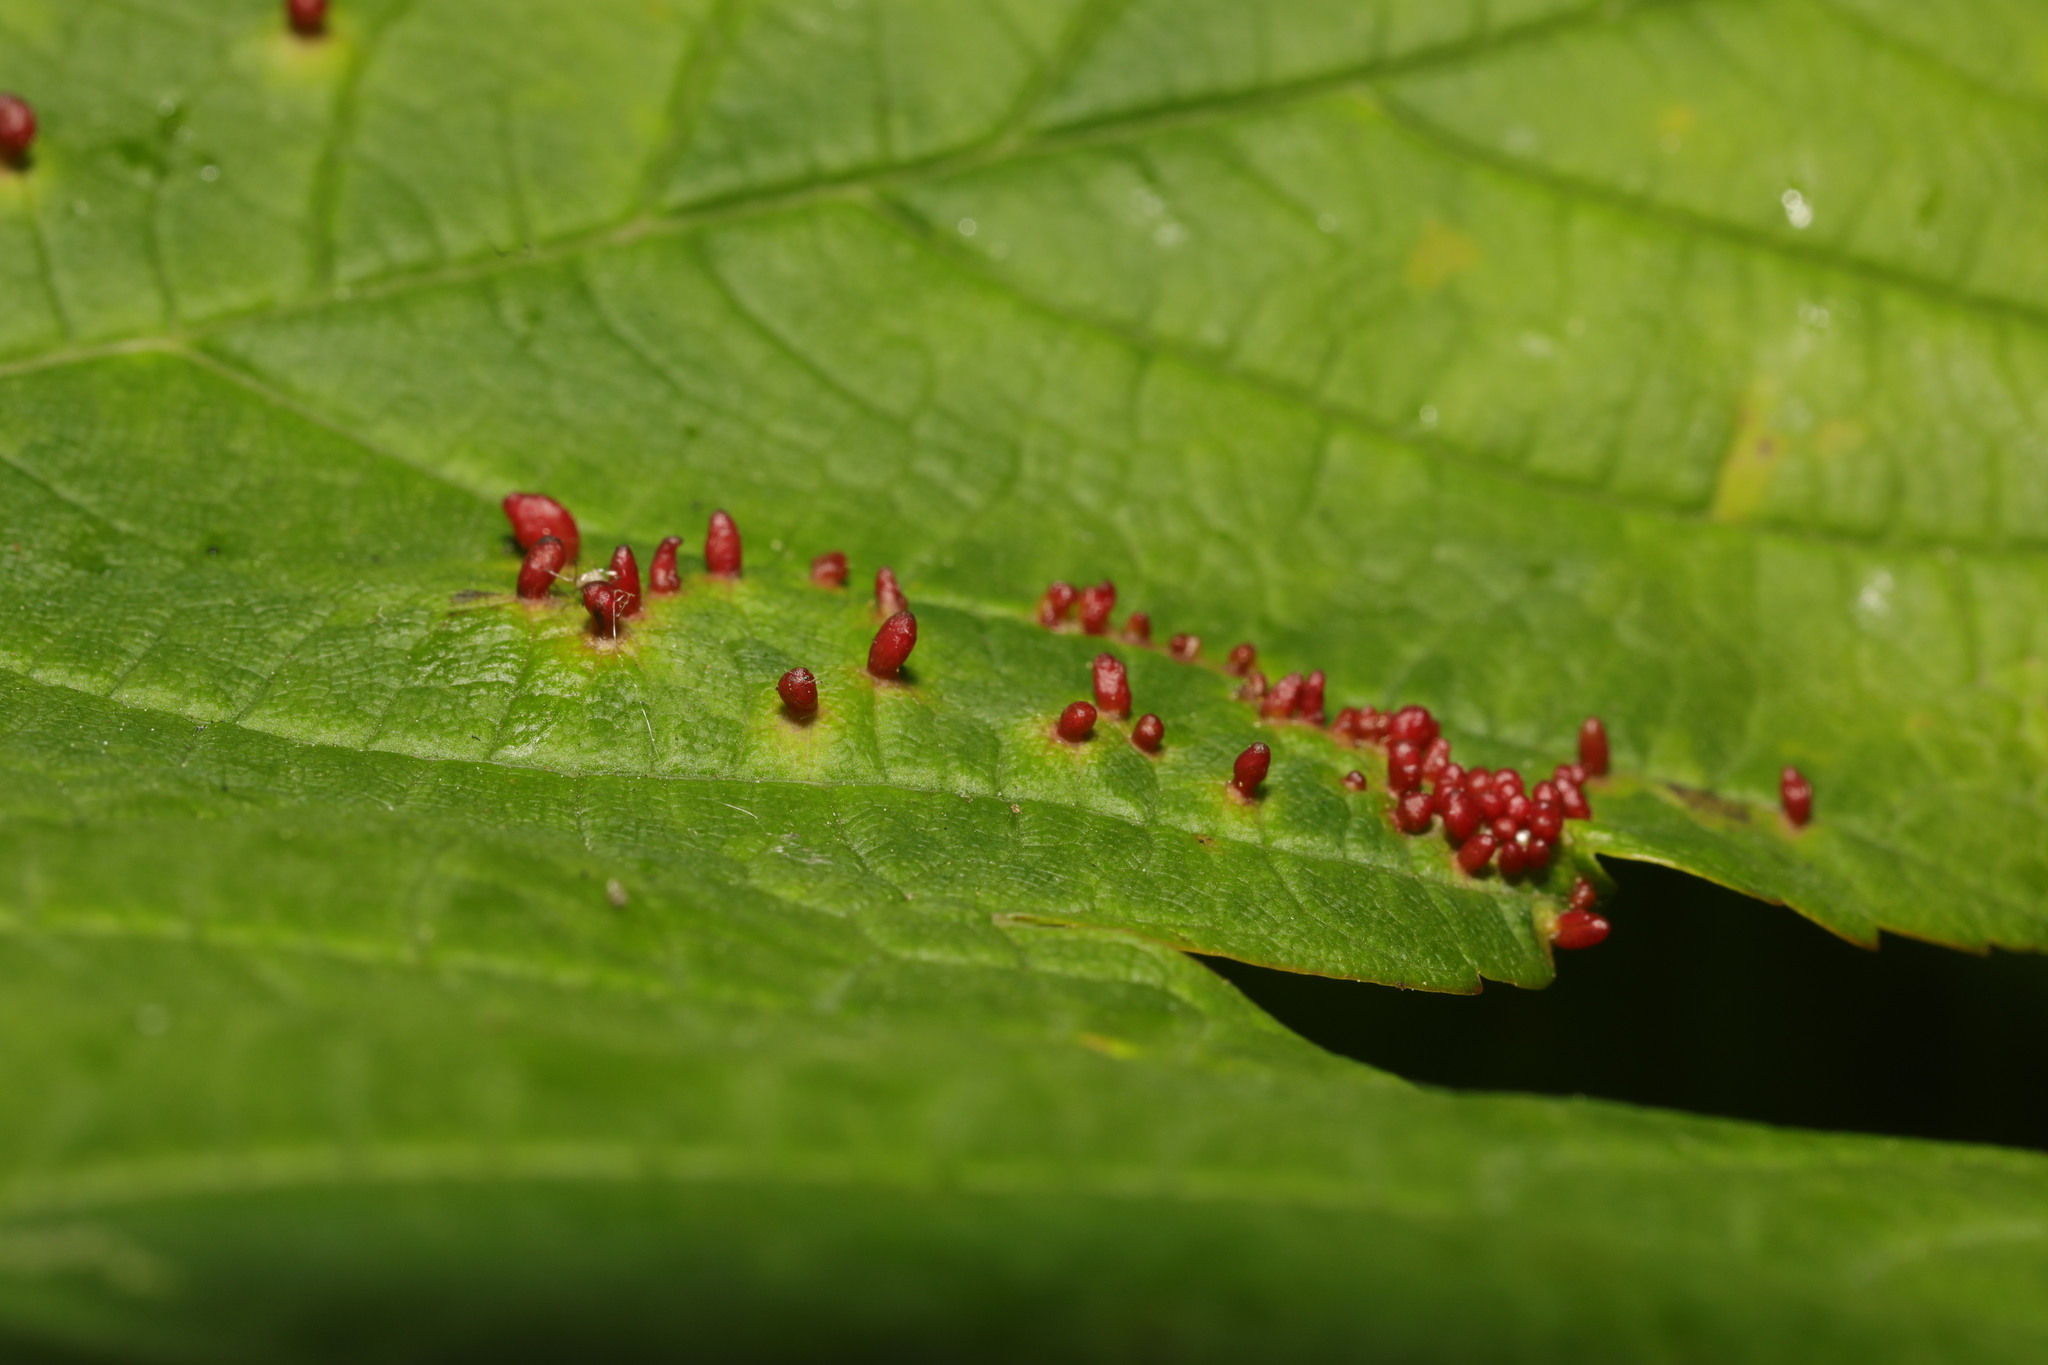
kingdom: Animalia
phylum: Arthropoda
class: Arachnida
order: Trombidiformes
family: Eriophyidae
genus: Aceria
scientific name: Aceria cephaloneus
